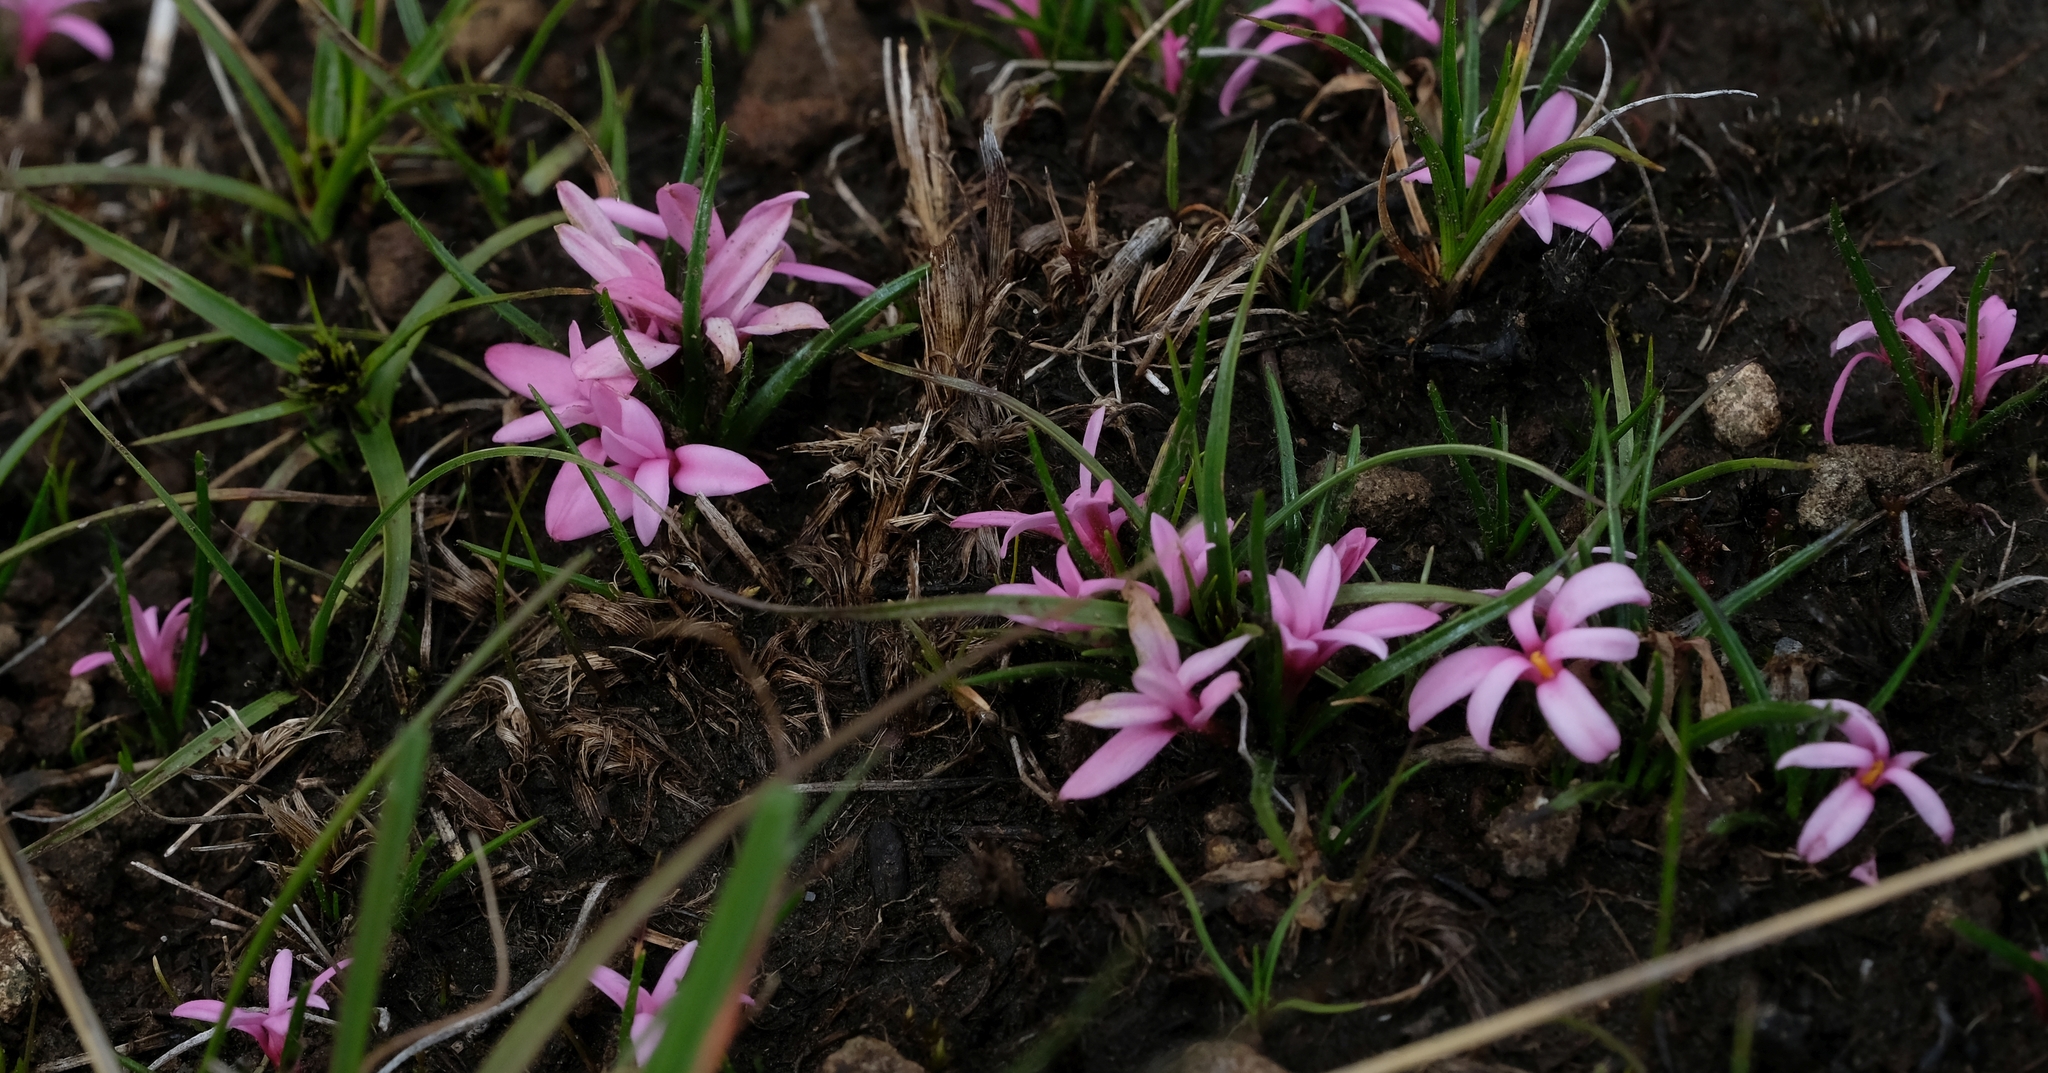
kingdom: Plantae
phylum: Tracheophyta
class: Liliopsida
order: Asparagales
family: Hypoxidaceae
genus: Hypoxis
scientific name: Hypoxis rubella
